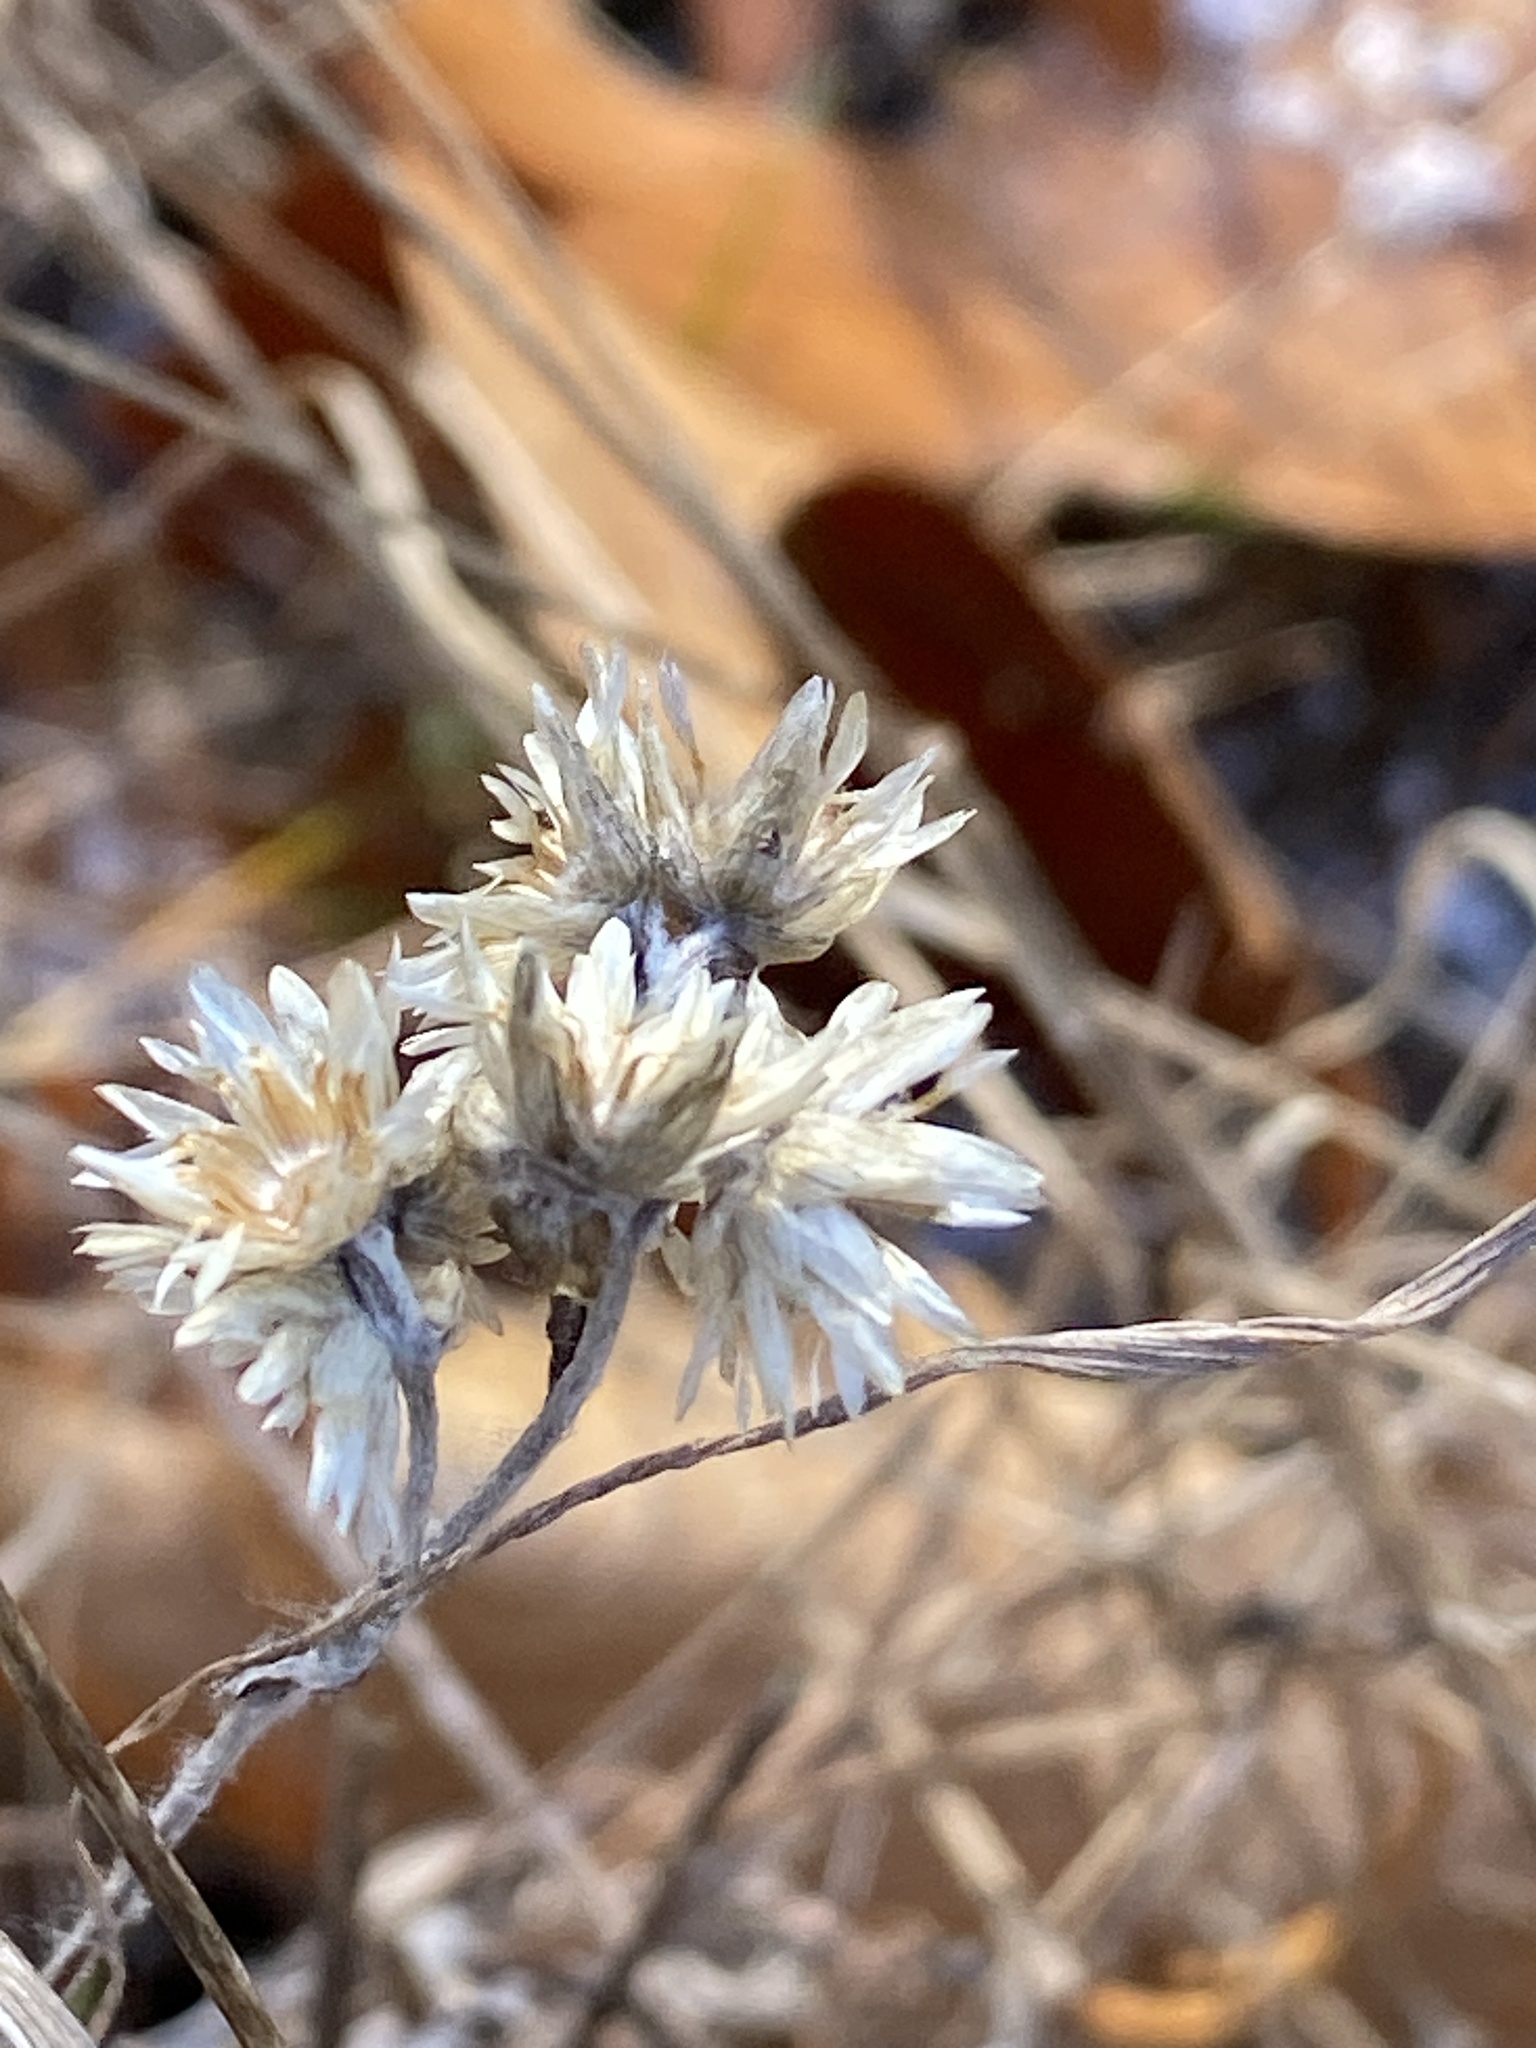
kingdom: Plantae
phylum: Tracheophyta
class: Magnoliopsida
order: Asterales
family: Asteraceae
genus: Pseudognaphalium
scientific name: Pseudognaphalium obtusifolium
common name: Eastern rabbit-tobacco
